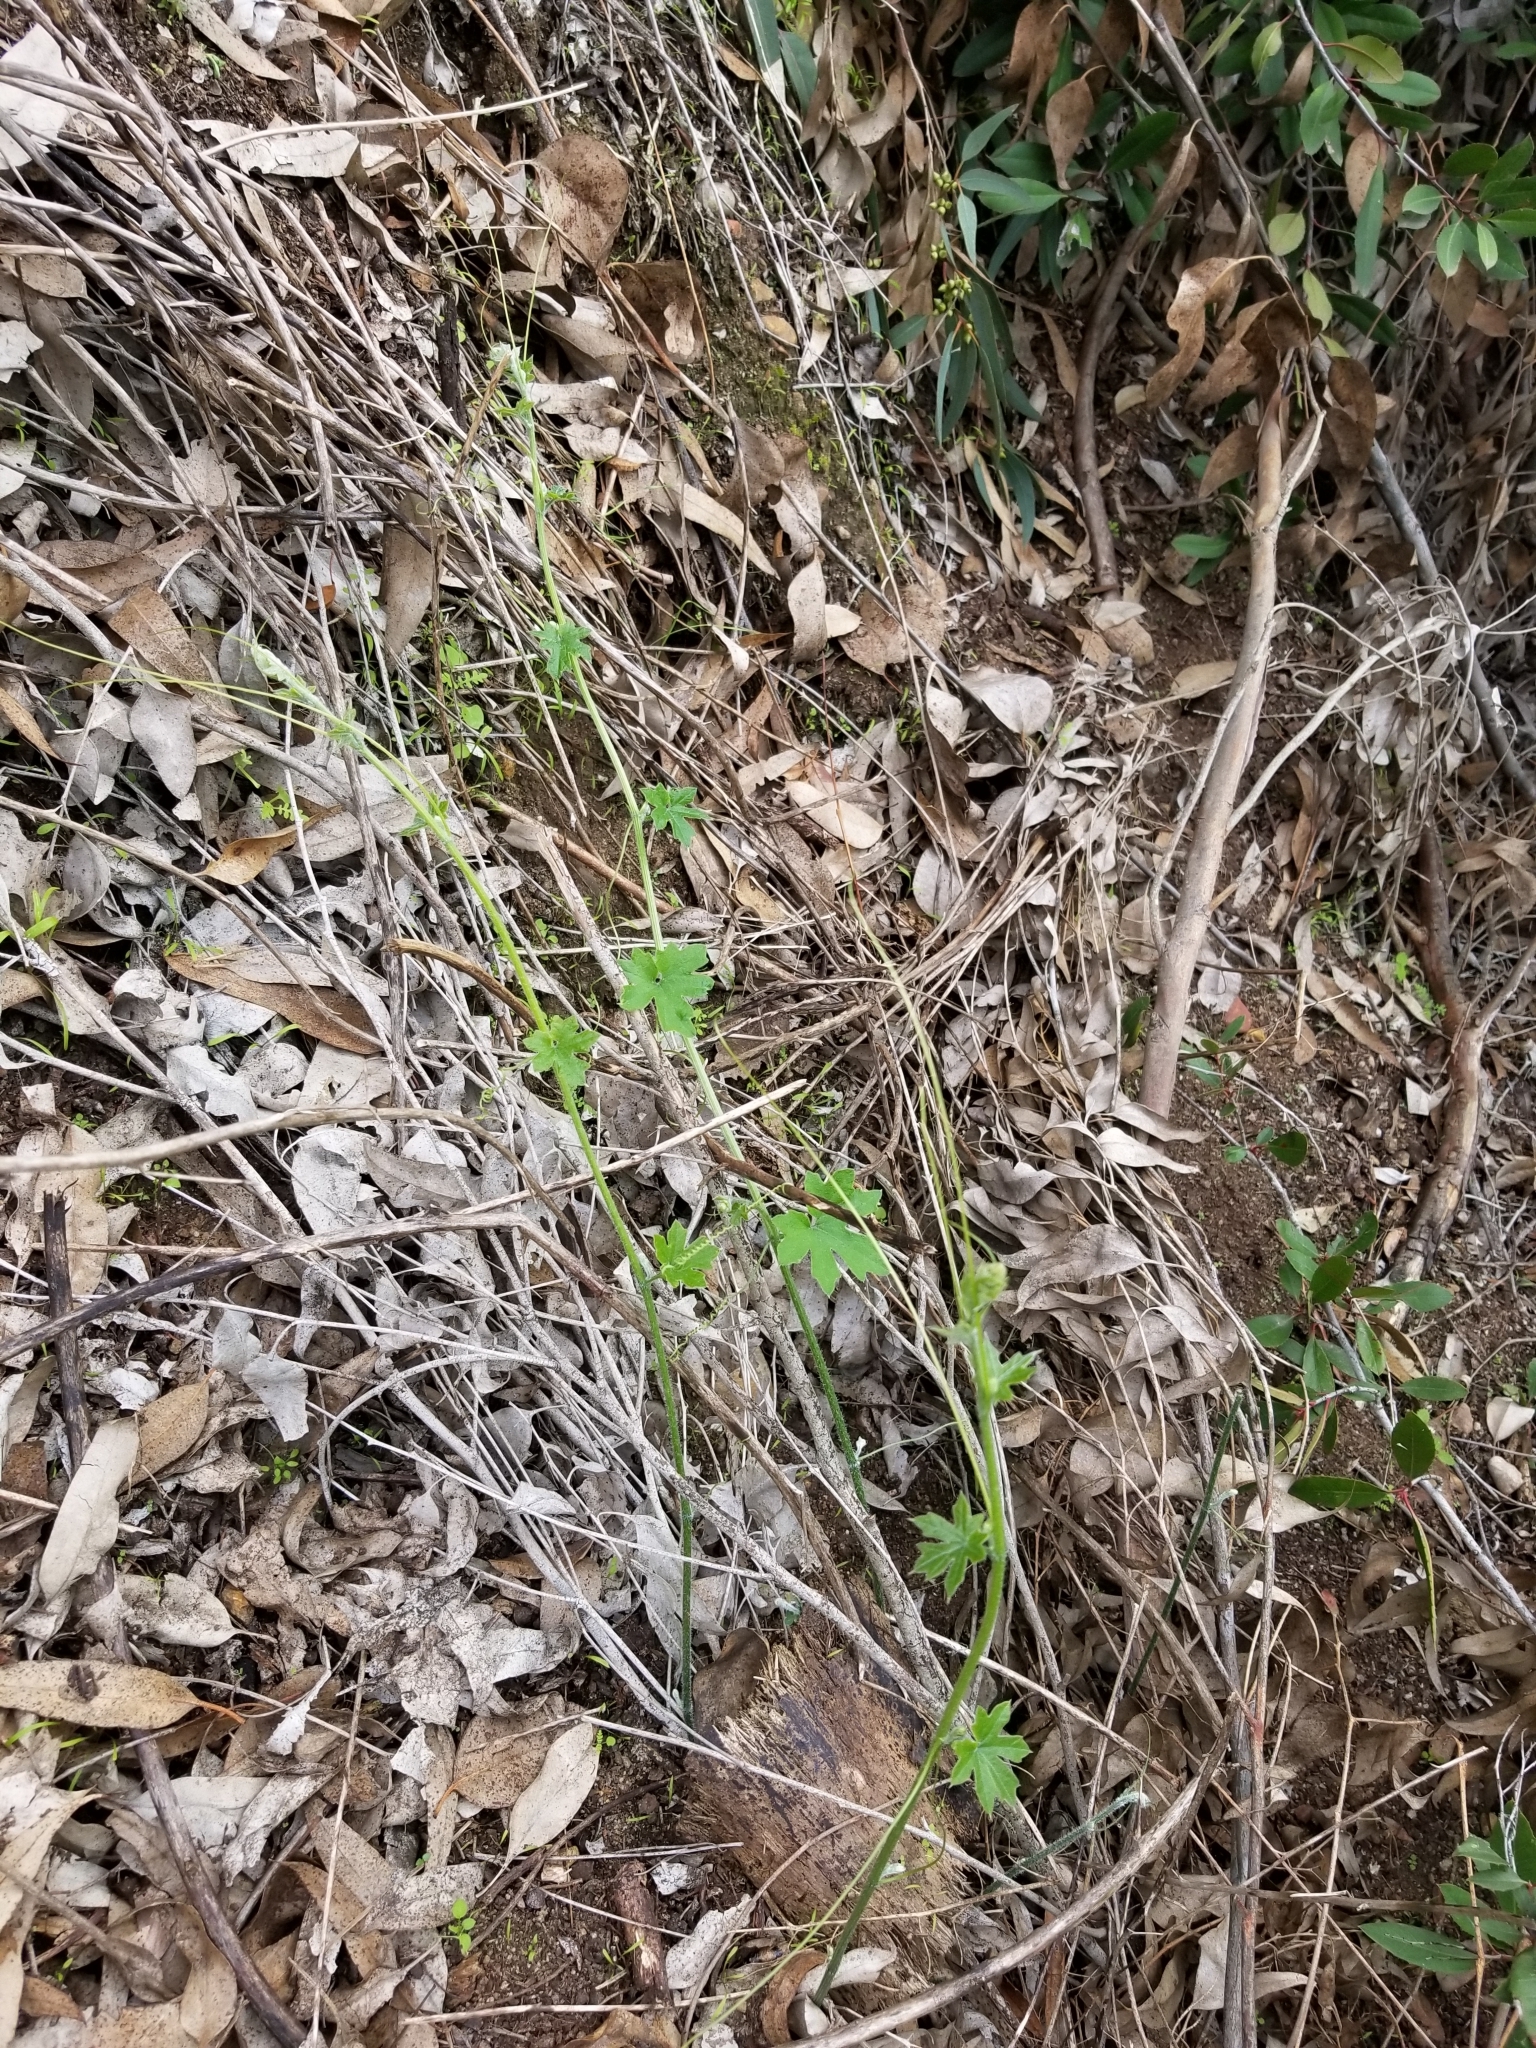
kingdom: Plantae
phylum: Tracheophyta
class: Magnoliopsida
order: Cucurbitales
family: Cucurbitaceae
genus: Marah
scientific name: Marah macrocarpa
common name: Cucamonga manroot
